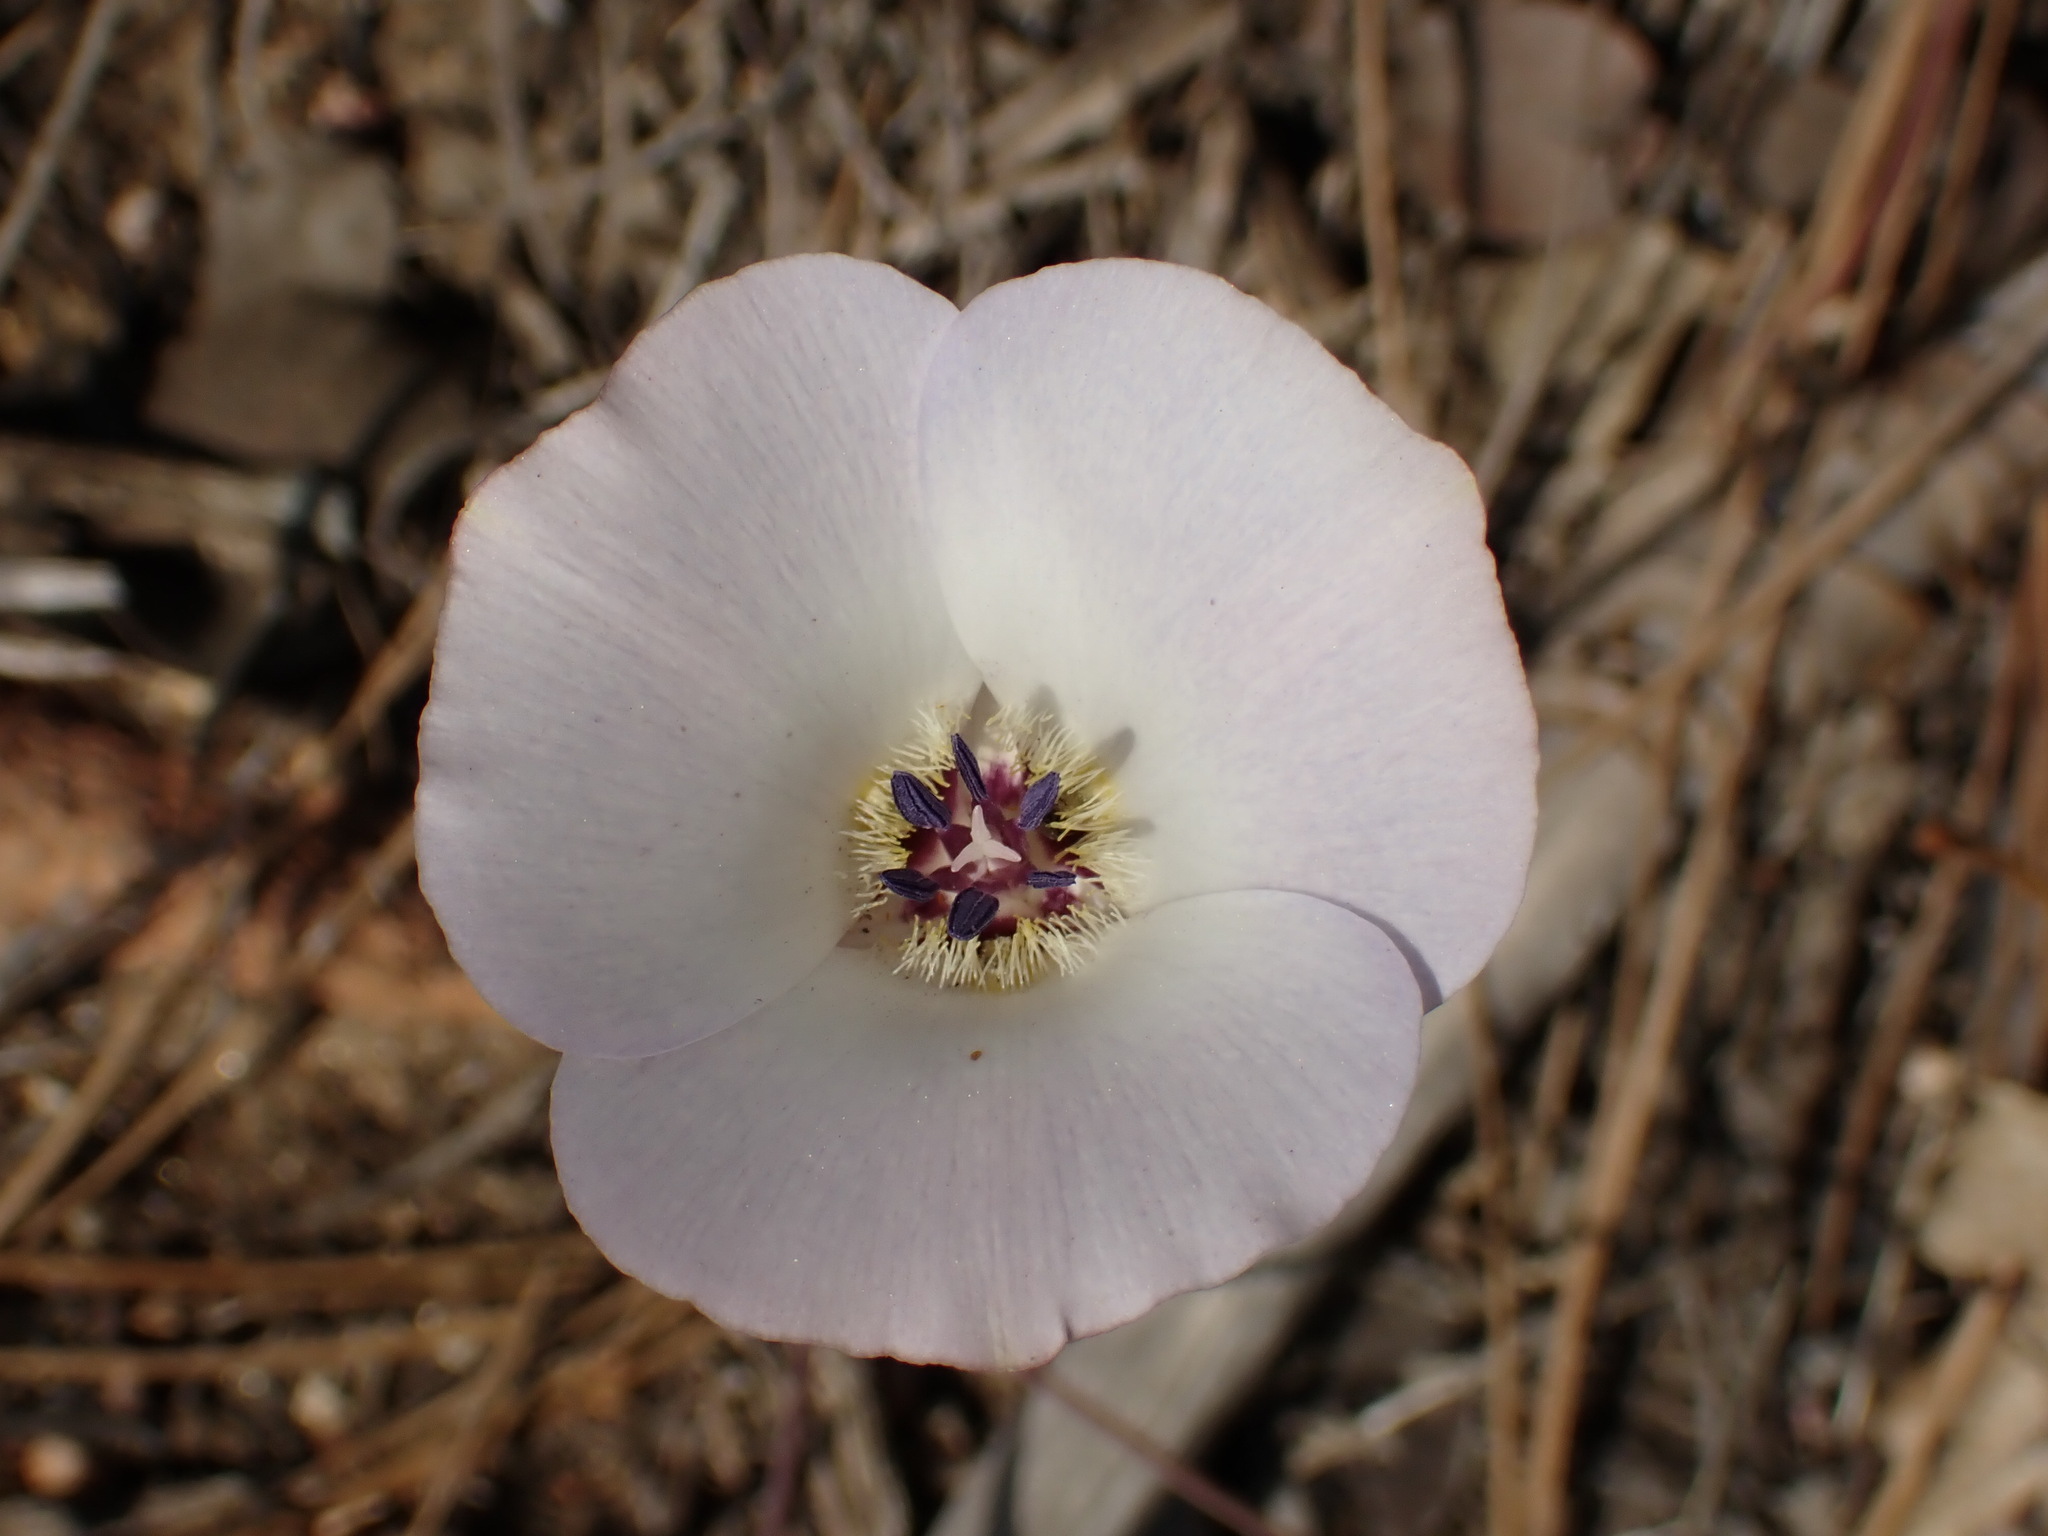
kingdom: Plantae
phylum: Tracheophyta
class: Liliopsida
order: Liliales
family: Liliaceae
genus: Calochortus
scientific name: Calochortus invenustus
